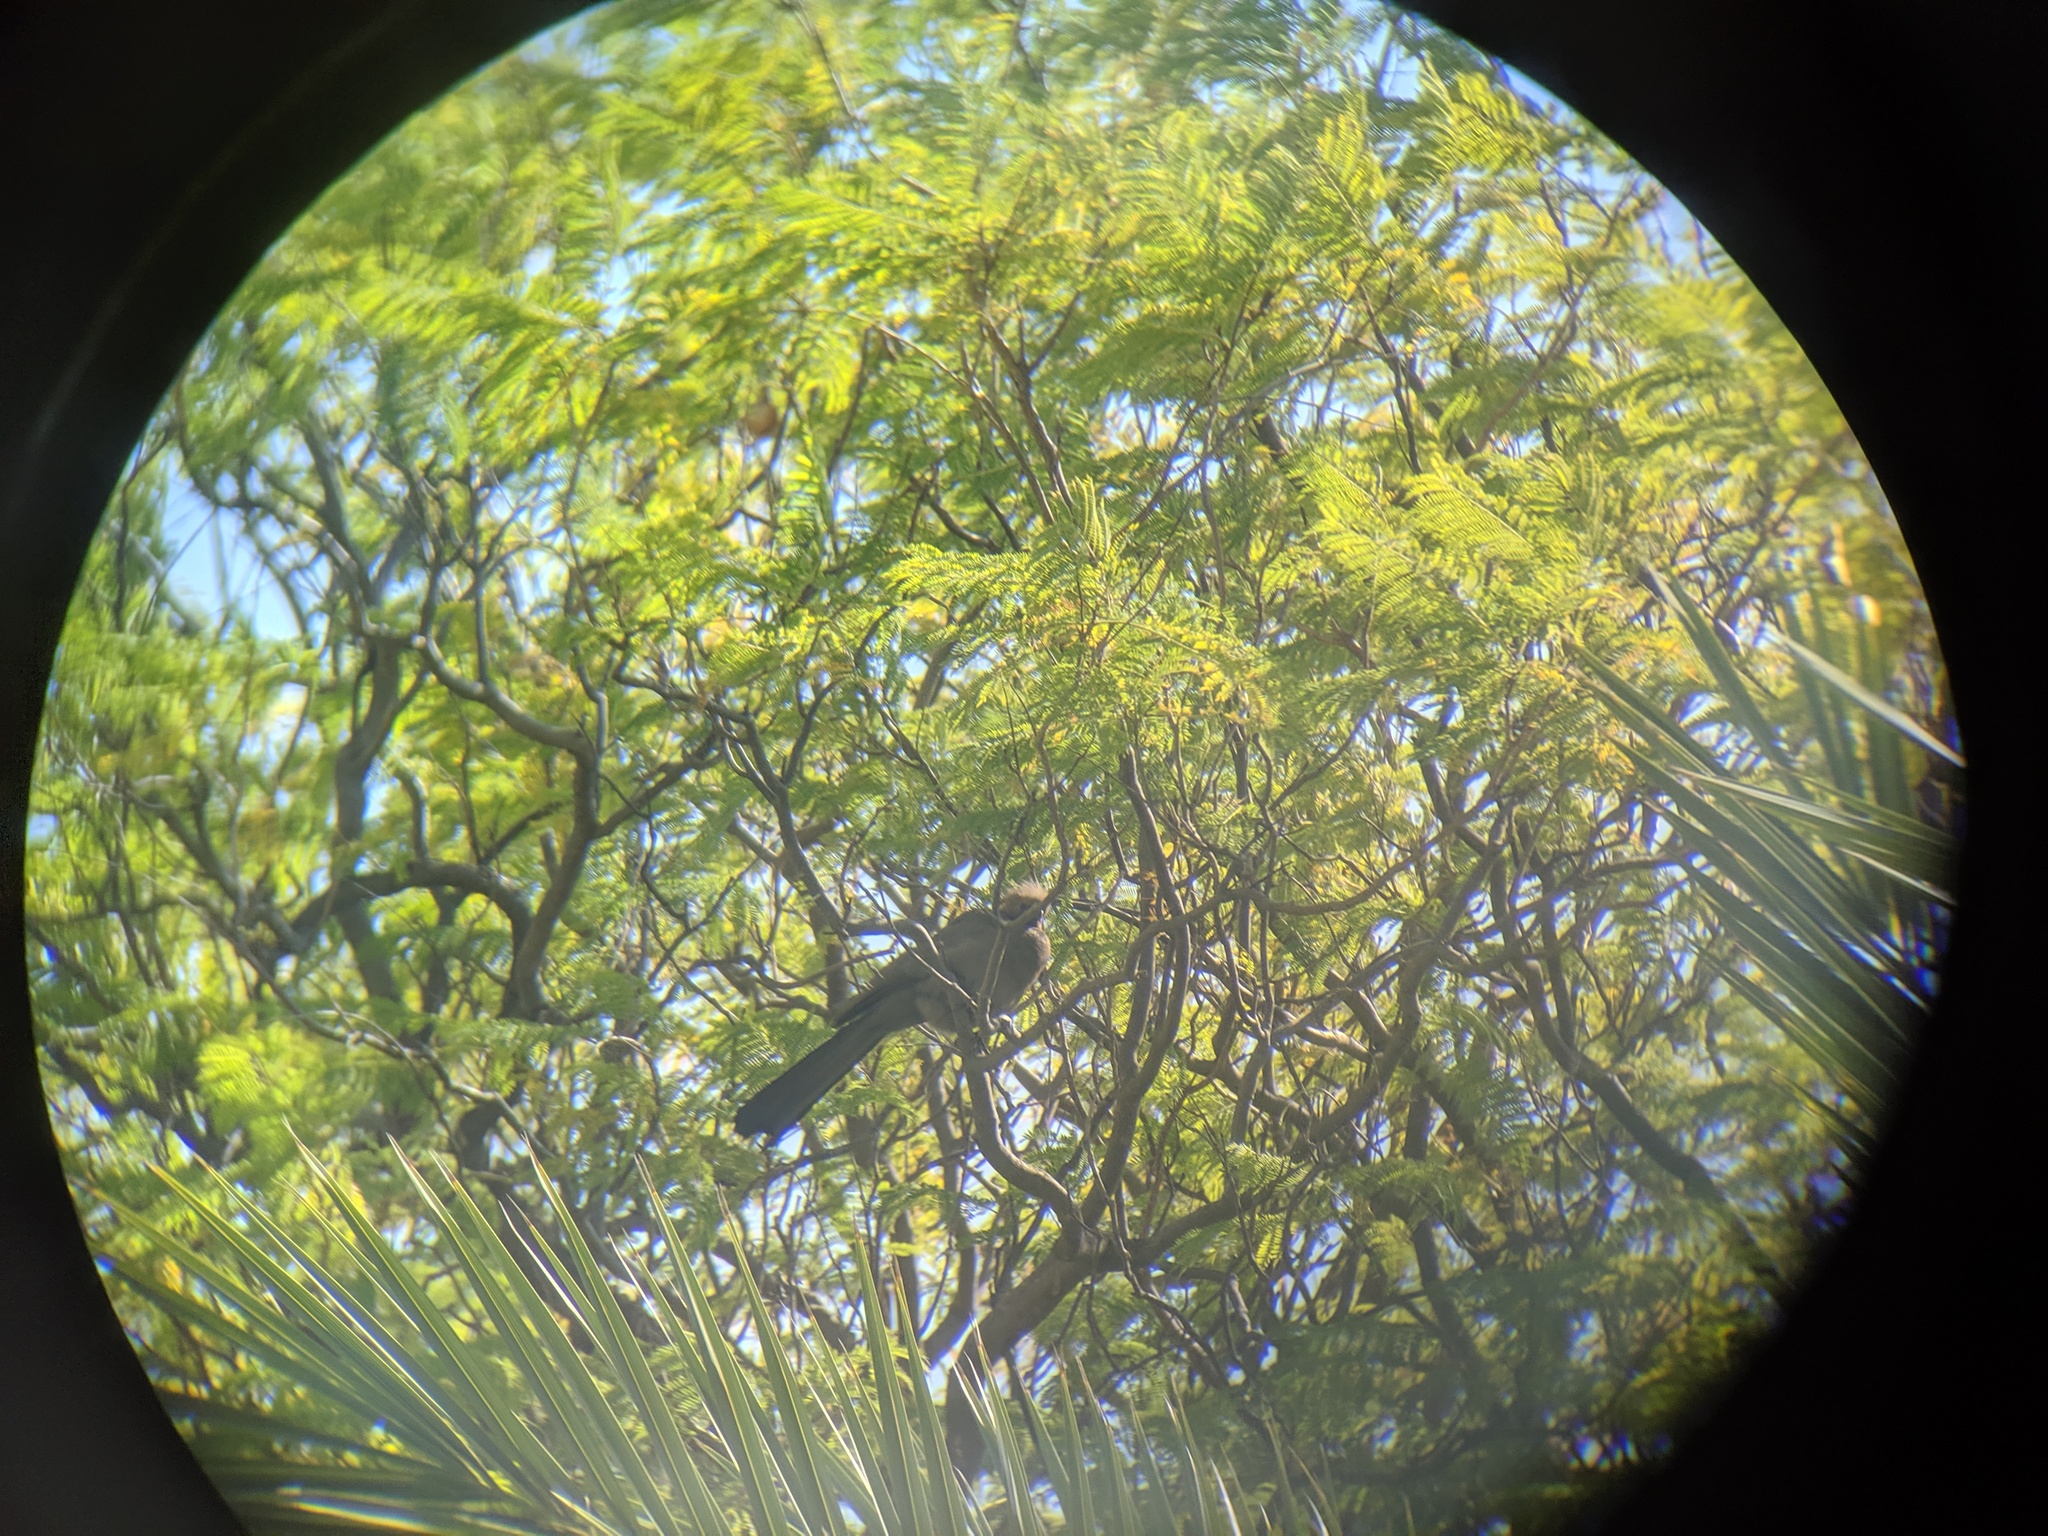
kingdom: Animalia
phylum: Chordata
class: Aves
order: Musophagiformes
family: Musophagidae
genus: Corythaixoides
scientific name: Corythaixoides concolor
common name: Grey go-away-bird
